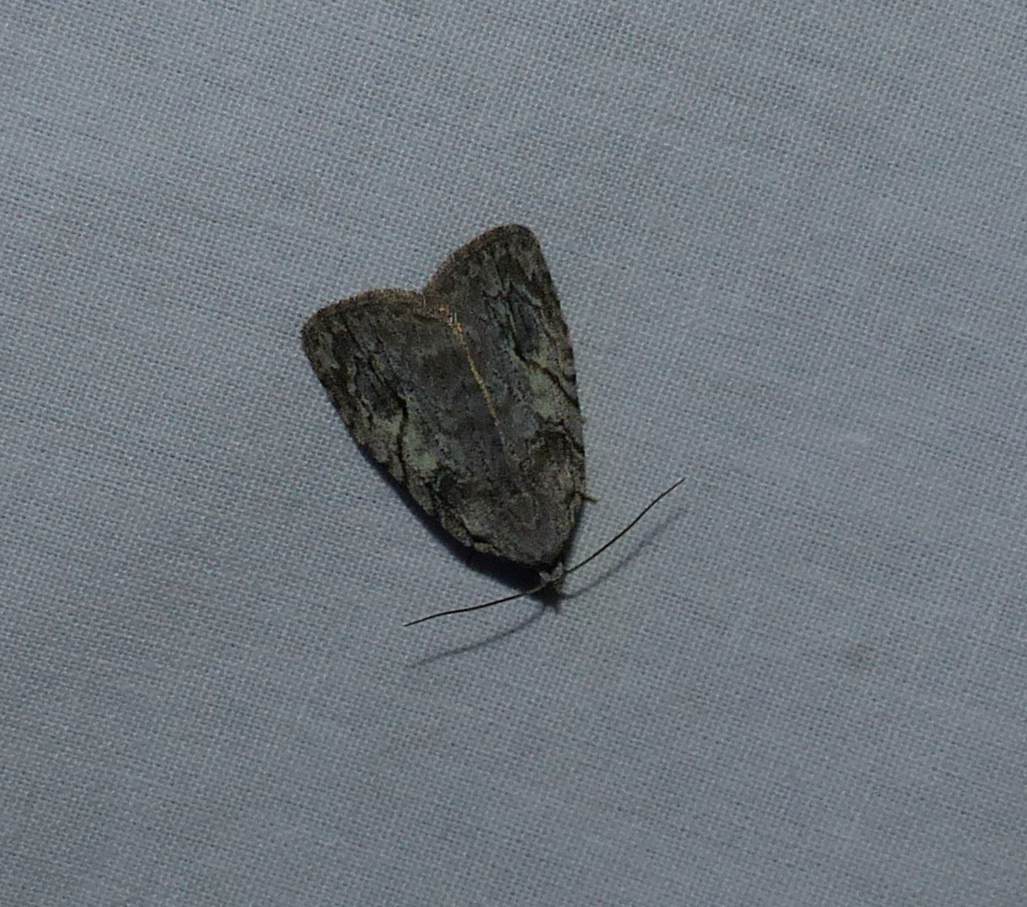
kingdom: Animalia
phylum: Arthropoda
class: Insecta
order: Lepidoptera
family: Noctuidae
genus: Balsa
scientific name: Balsa labecula
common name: White-blotched balsa moth
